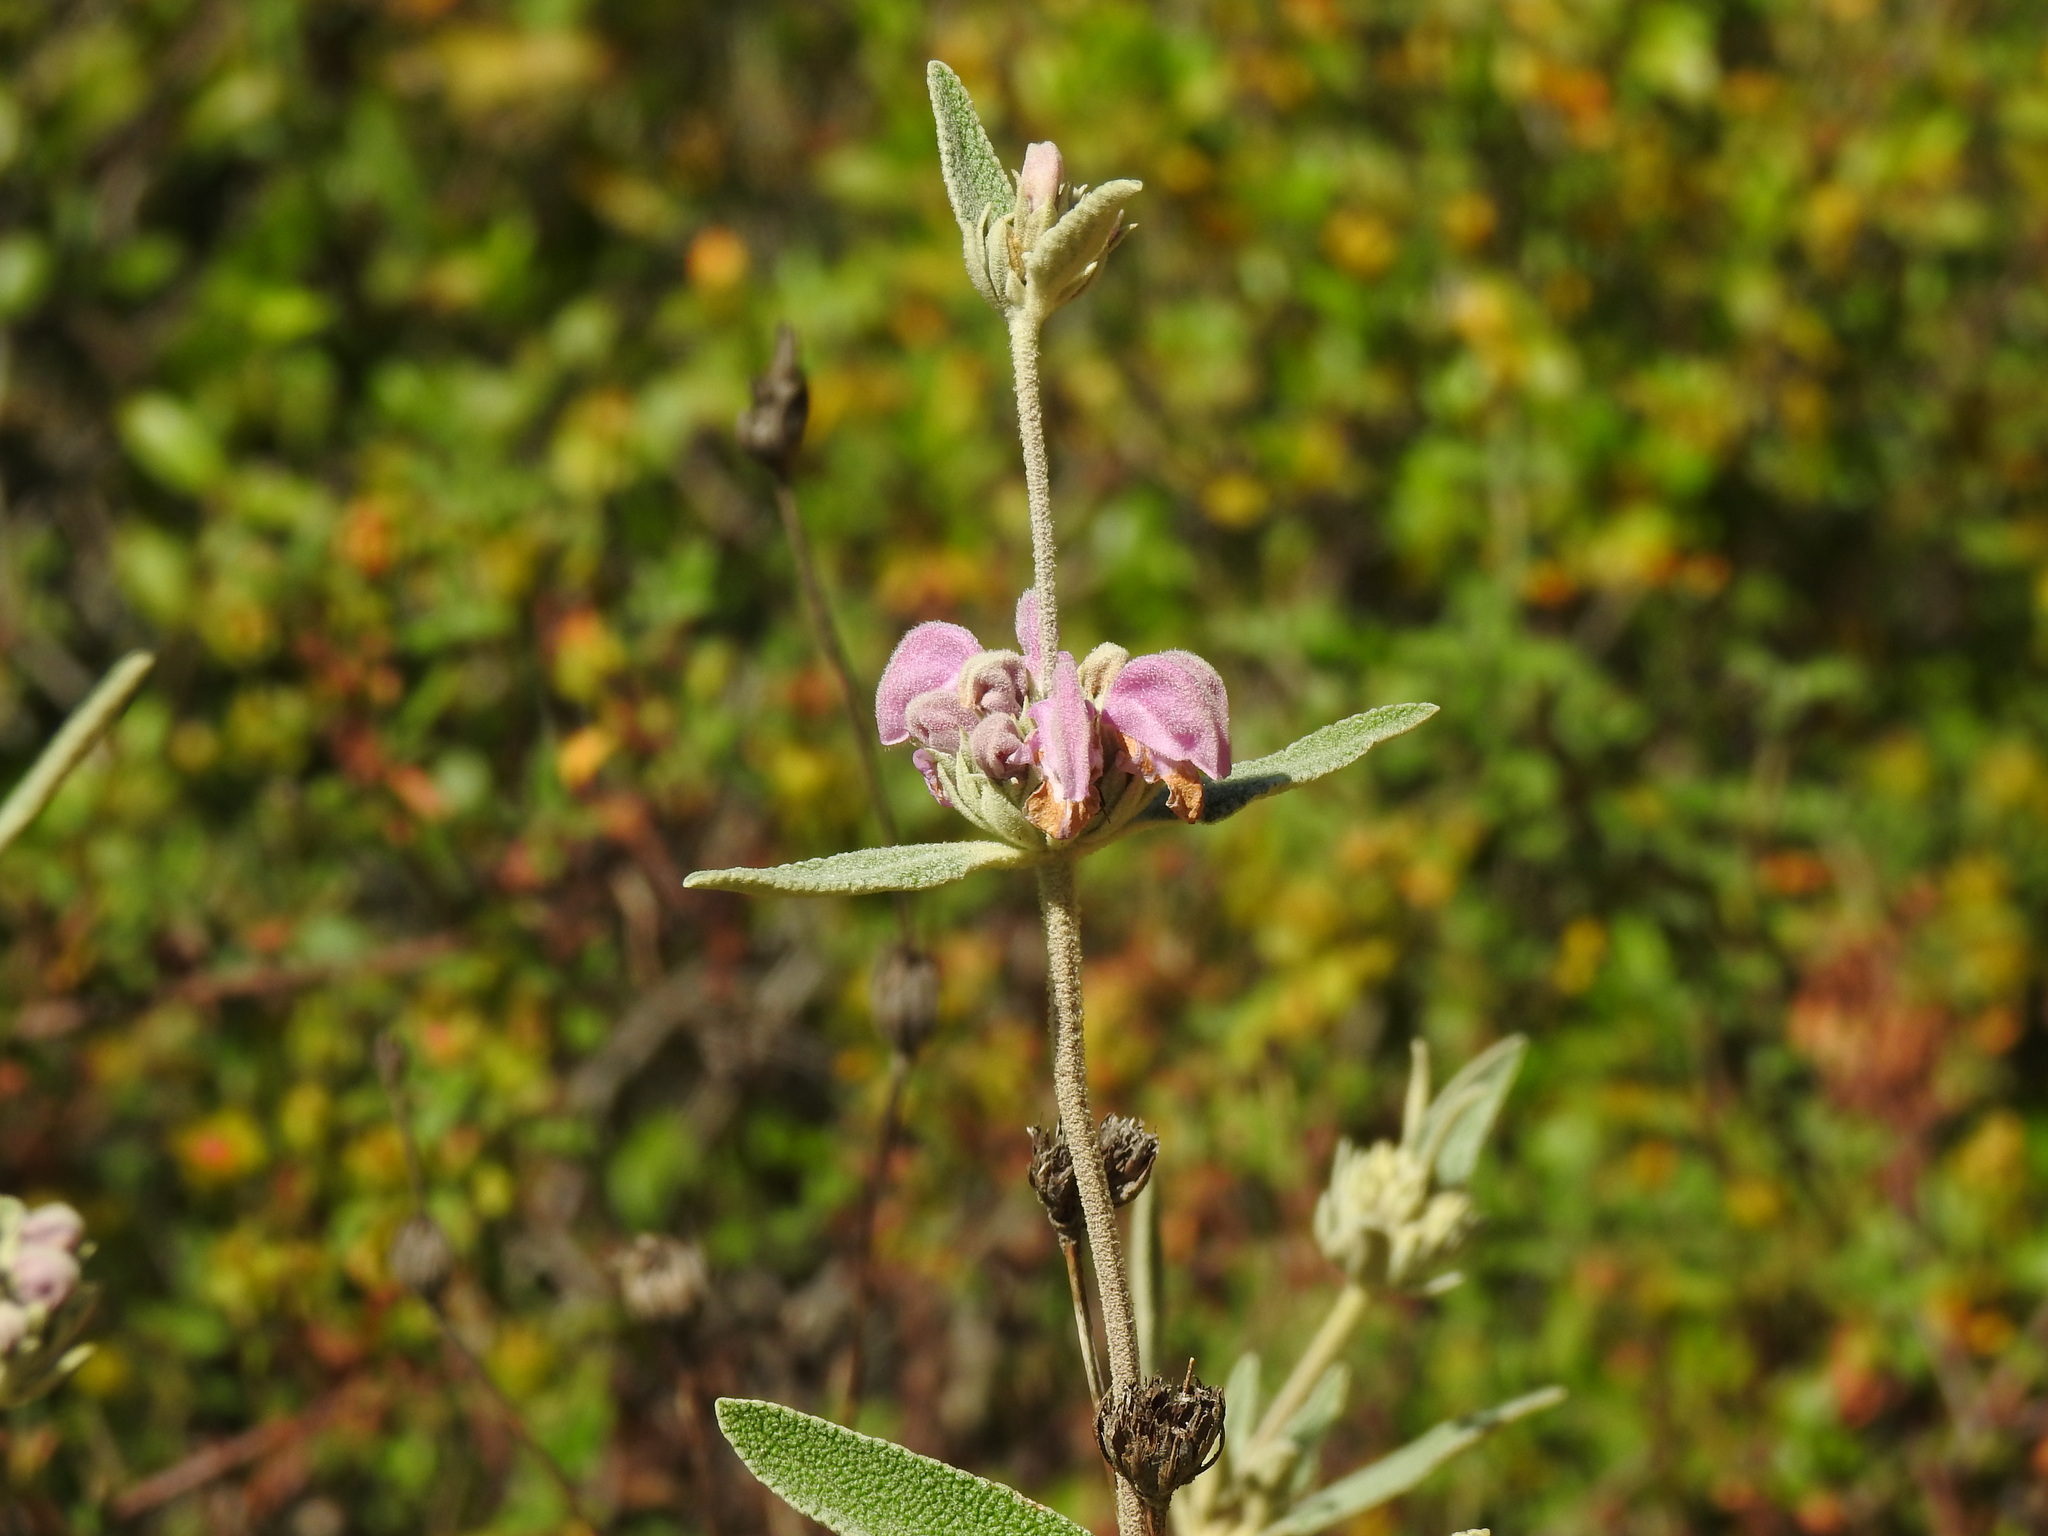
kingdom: Plantae
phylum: Tracheophyta
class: Magnoliopsida
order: Lamiales
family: Lamiaceae
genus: Phlomis
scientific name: Phlomis purpurea
